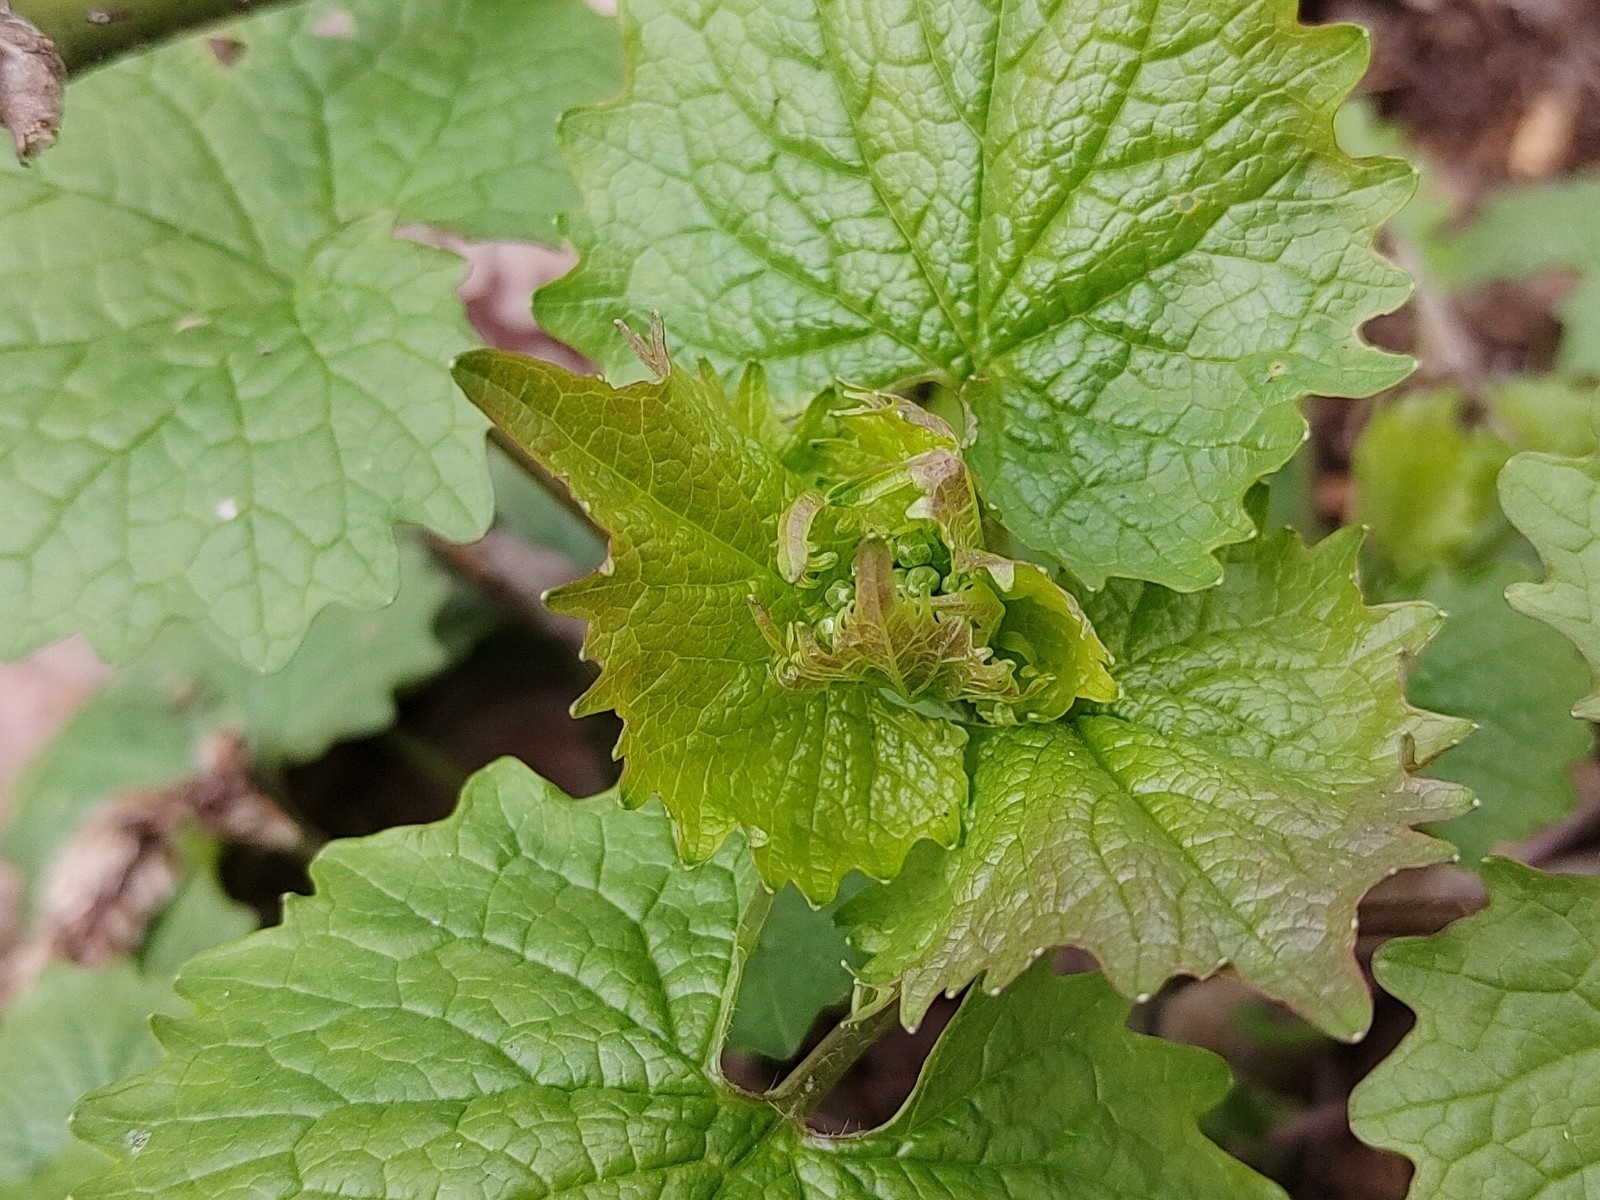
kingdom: Plantae
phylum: Tracheophyta
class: Magnoliopsida
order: Brassicales
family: Brassicaceae
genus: Alliaria
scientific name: Alliaria petiolata
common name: Garlic mustard
